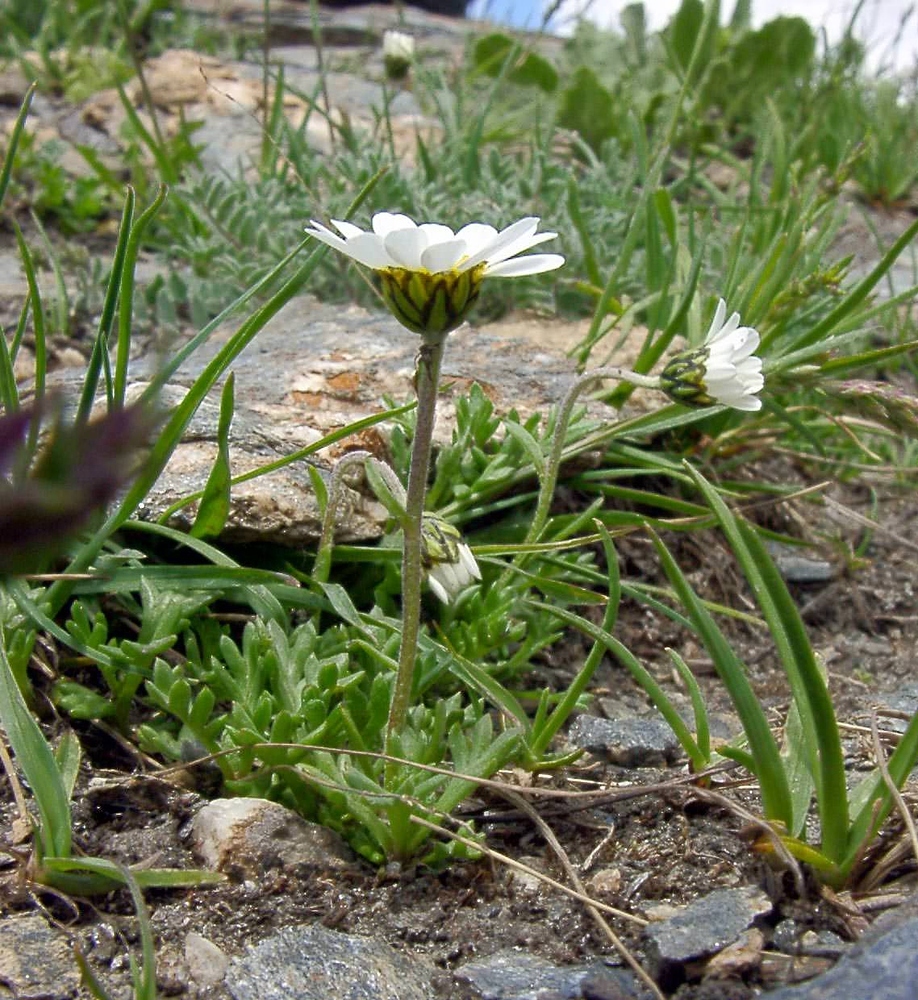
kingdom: Plantae
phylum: Tracheophyta
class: Magnoliopsida
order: Asterales
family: Asteraceae
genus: Leucanthemopsis
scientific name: Leucanthemopsis alpina
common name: Alpine moon daisy
